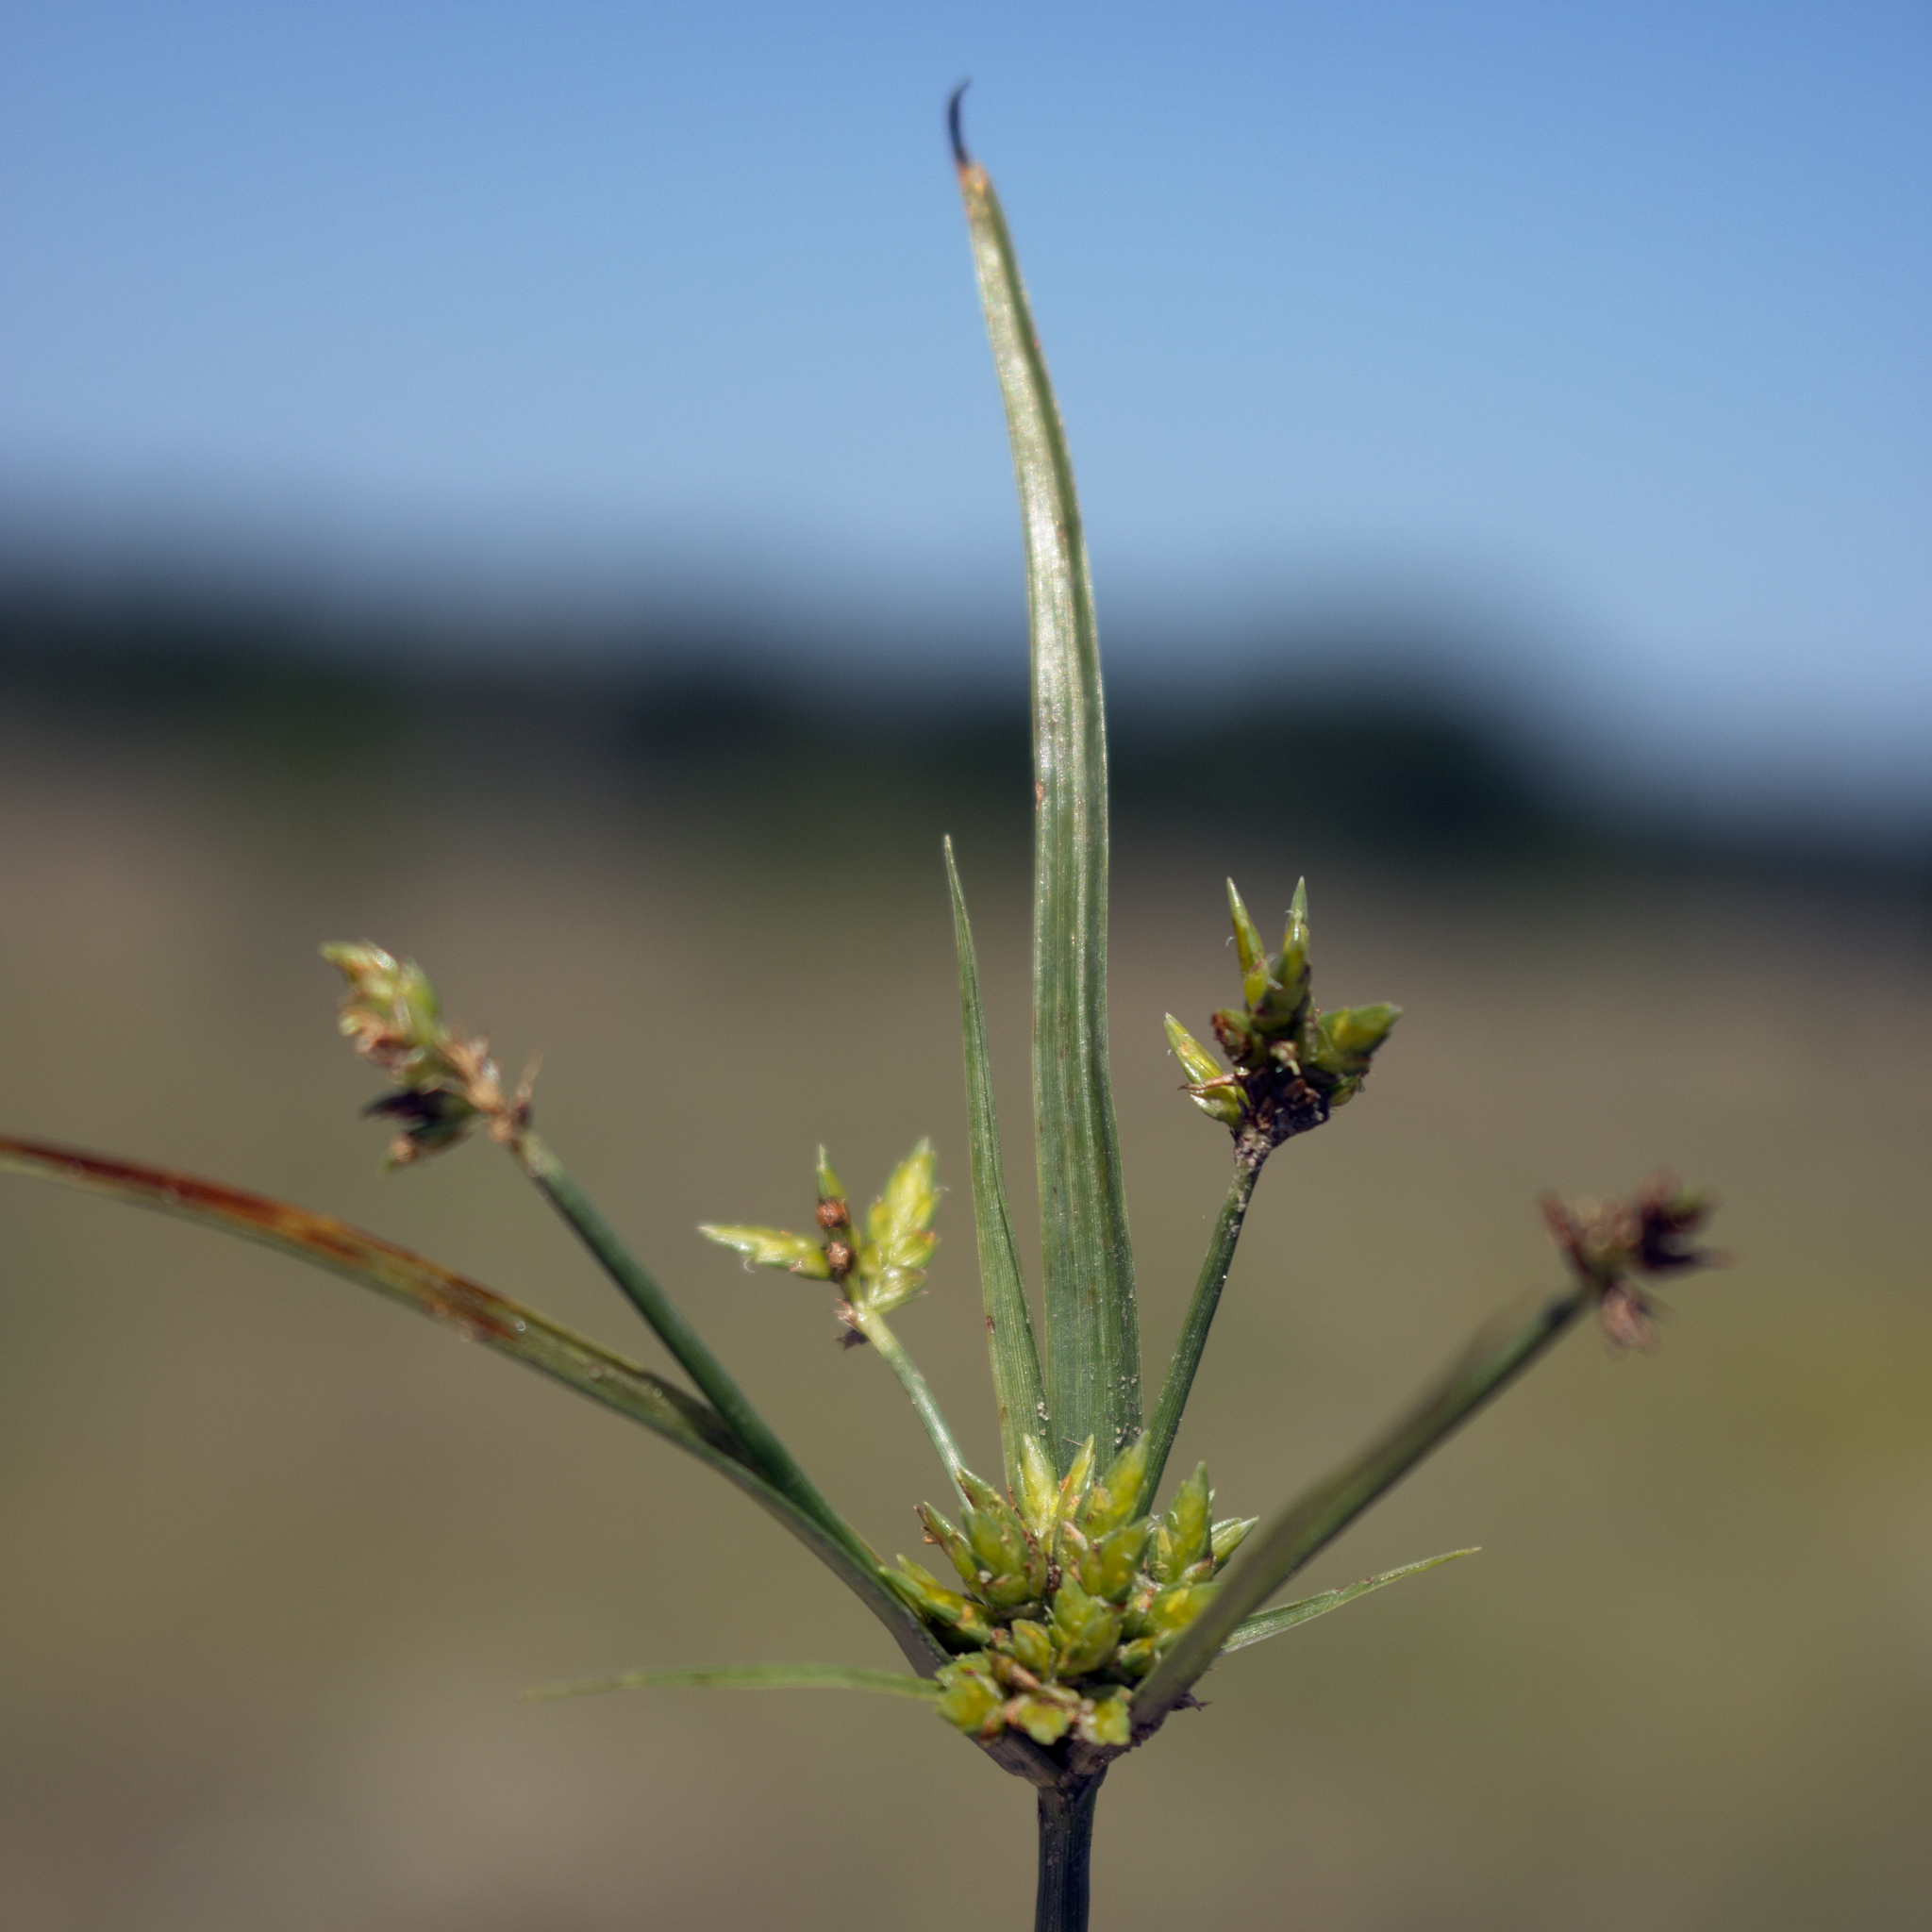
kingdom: Plantae
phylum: Tracheophyta
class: Liliopsida
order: Poales
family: Cyperaceae
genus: Cyperus
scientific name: Cyperus schweinitzii
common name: Schweinitz's cyperus
